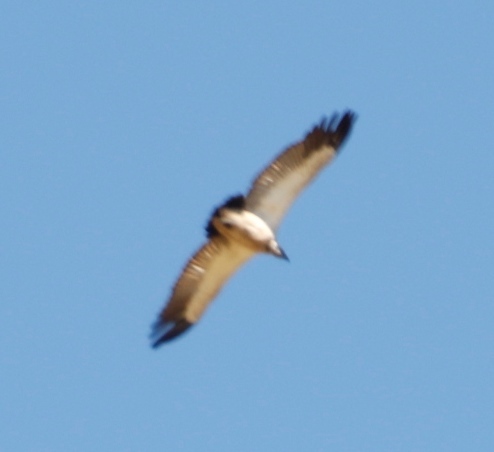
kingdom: Animalia
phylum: Chordata
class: Aves
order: Accipitriformes
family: Accipitridae
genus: Gyps
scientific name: Gyps coprotheres
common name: Cape vulture
